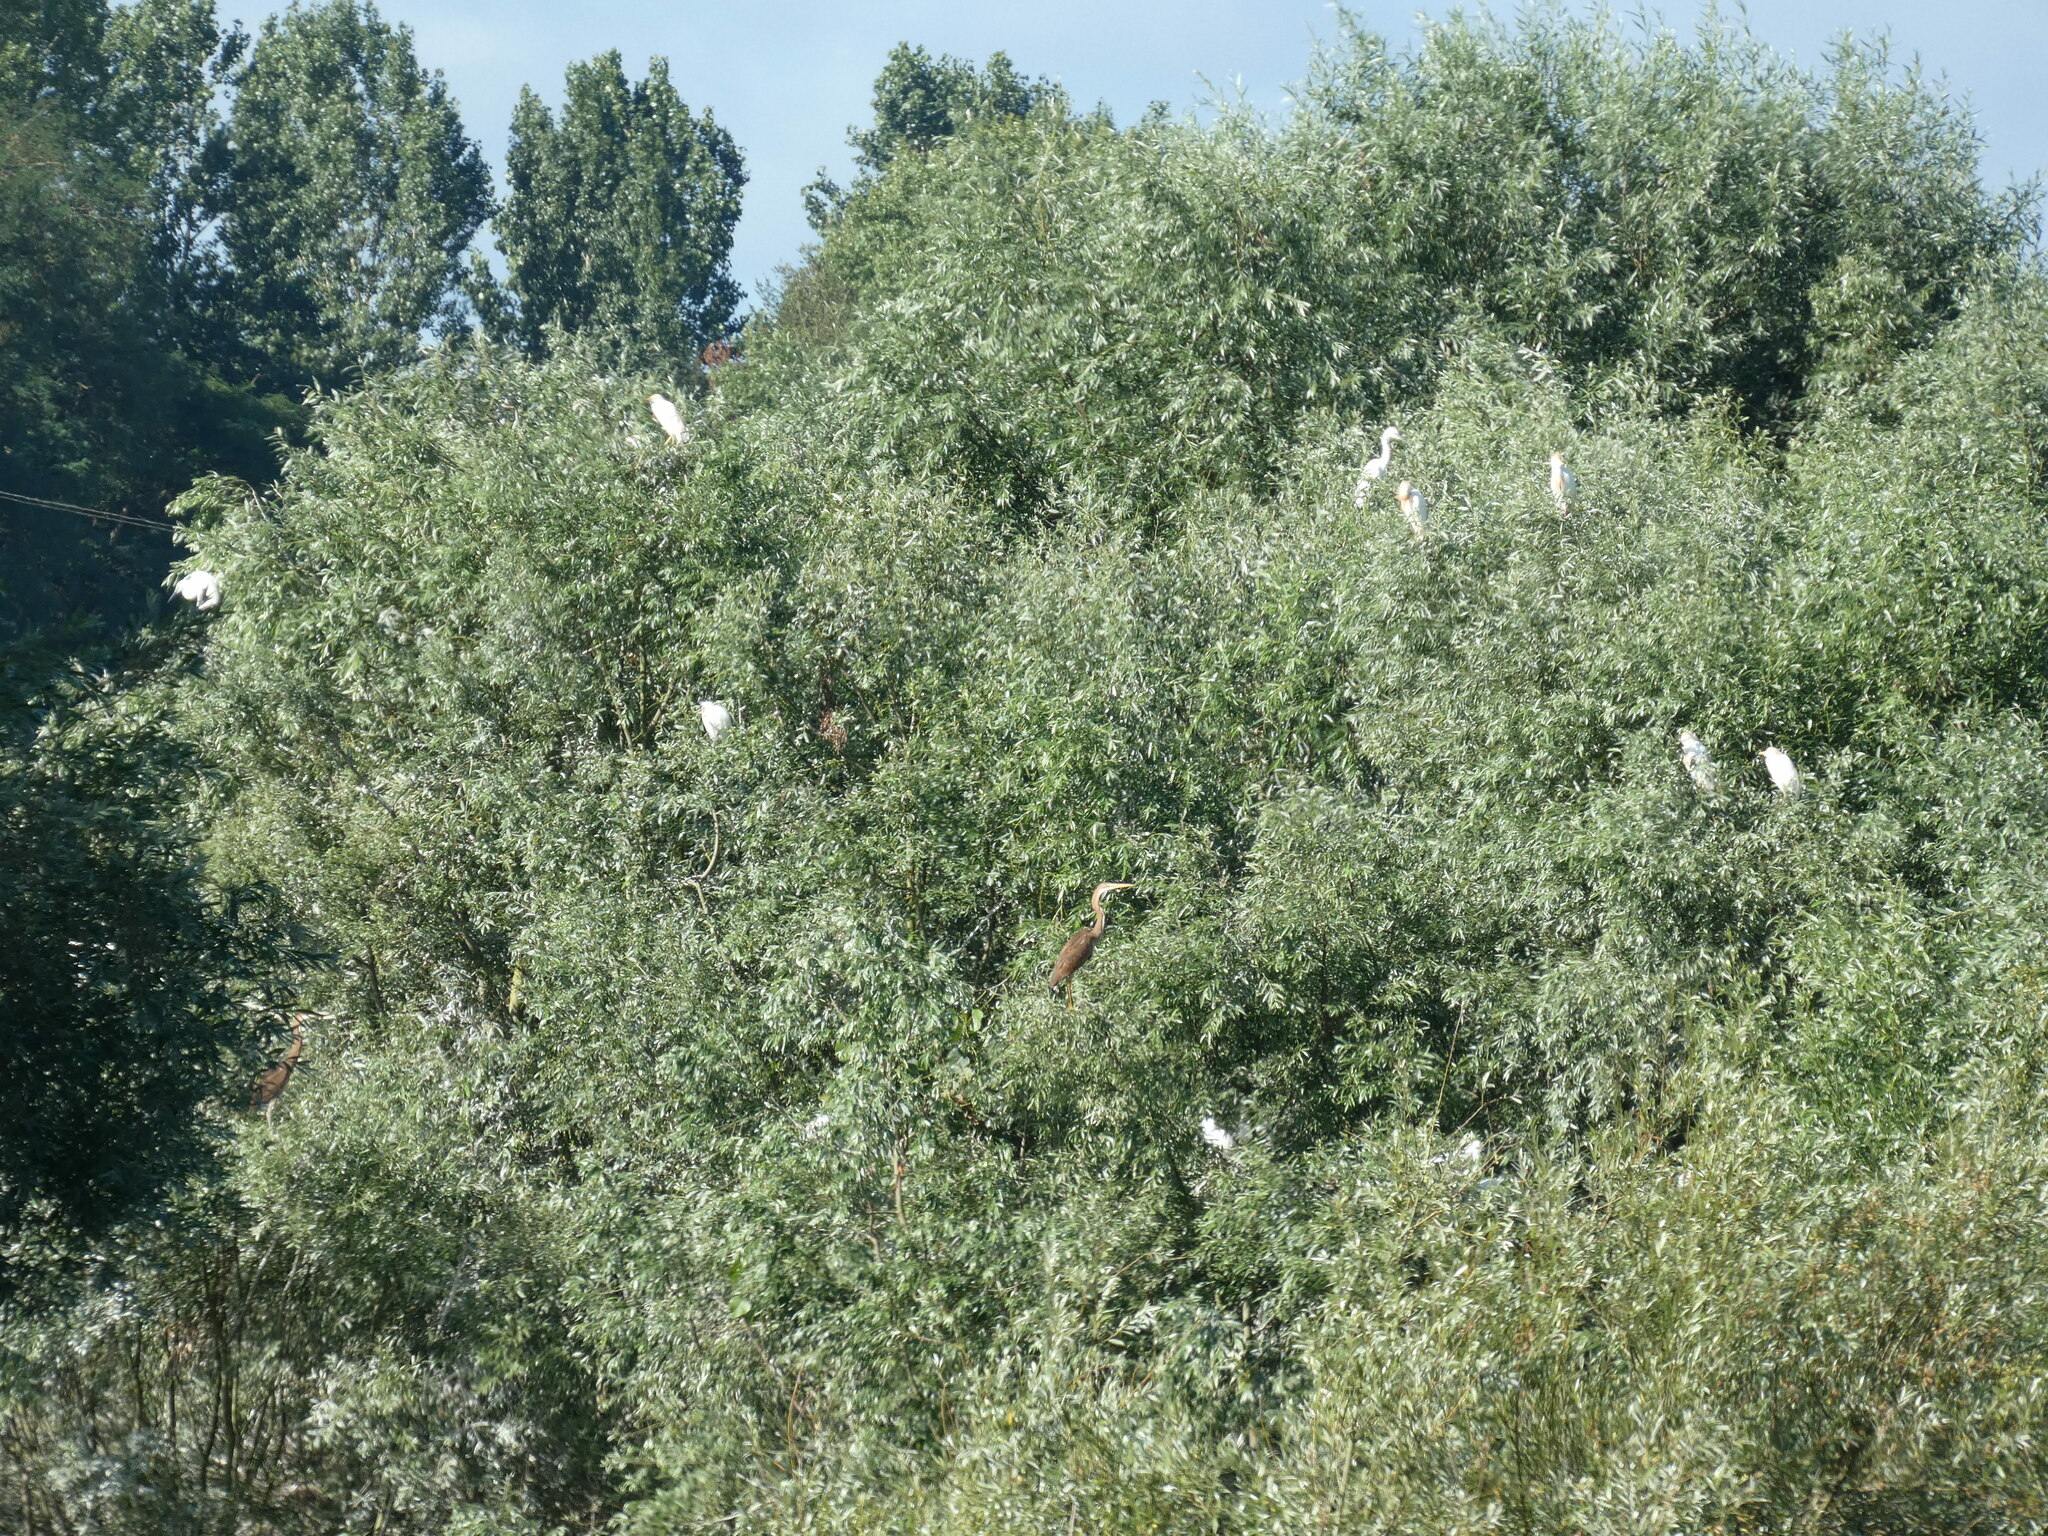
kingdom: Animalia
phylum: Chordata
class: Aves
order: Pelecaniformes
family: Ardeidae
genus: Bubulcus
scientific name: Bubulcus ibis
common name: Cattle egret
